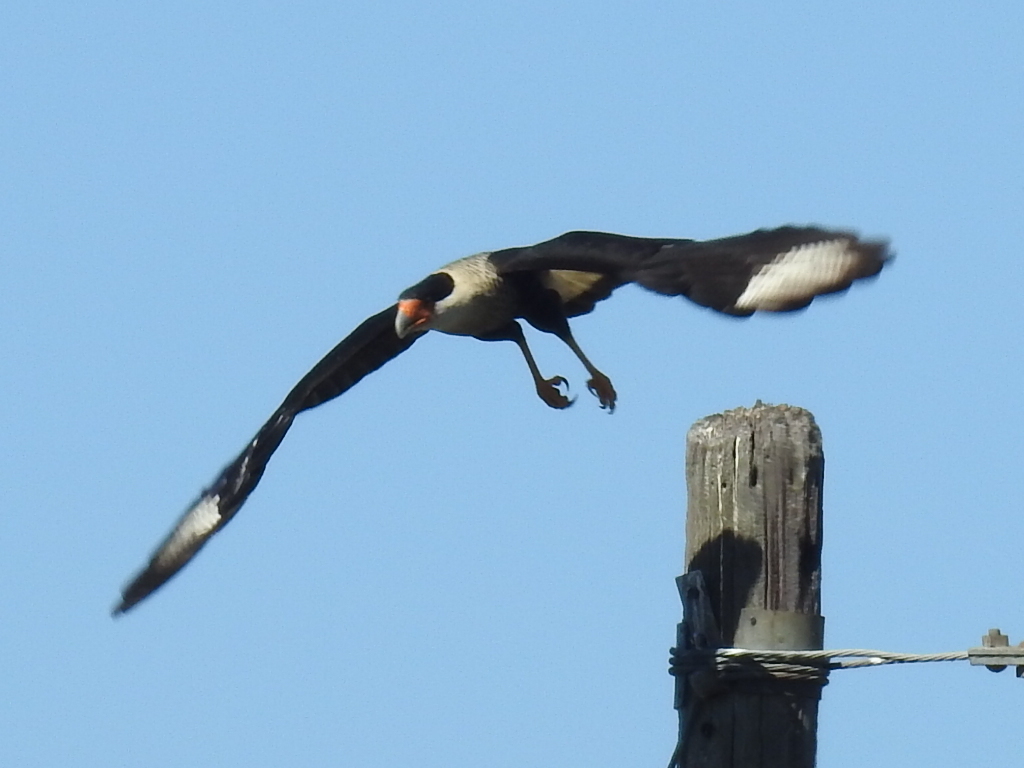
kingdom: Animalia
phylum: Chordata
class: Aves
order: Falconiformes
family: Falconidae
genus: Caracara
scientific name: Caracara plancus
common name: Southern caracara
